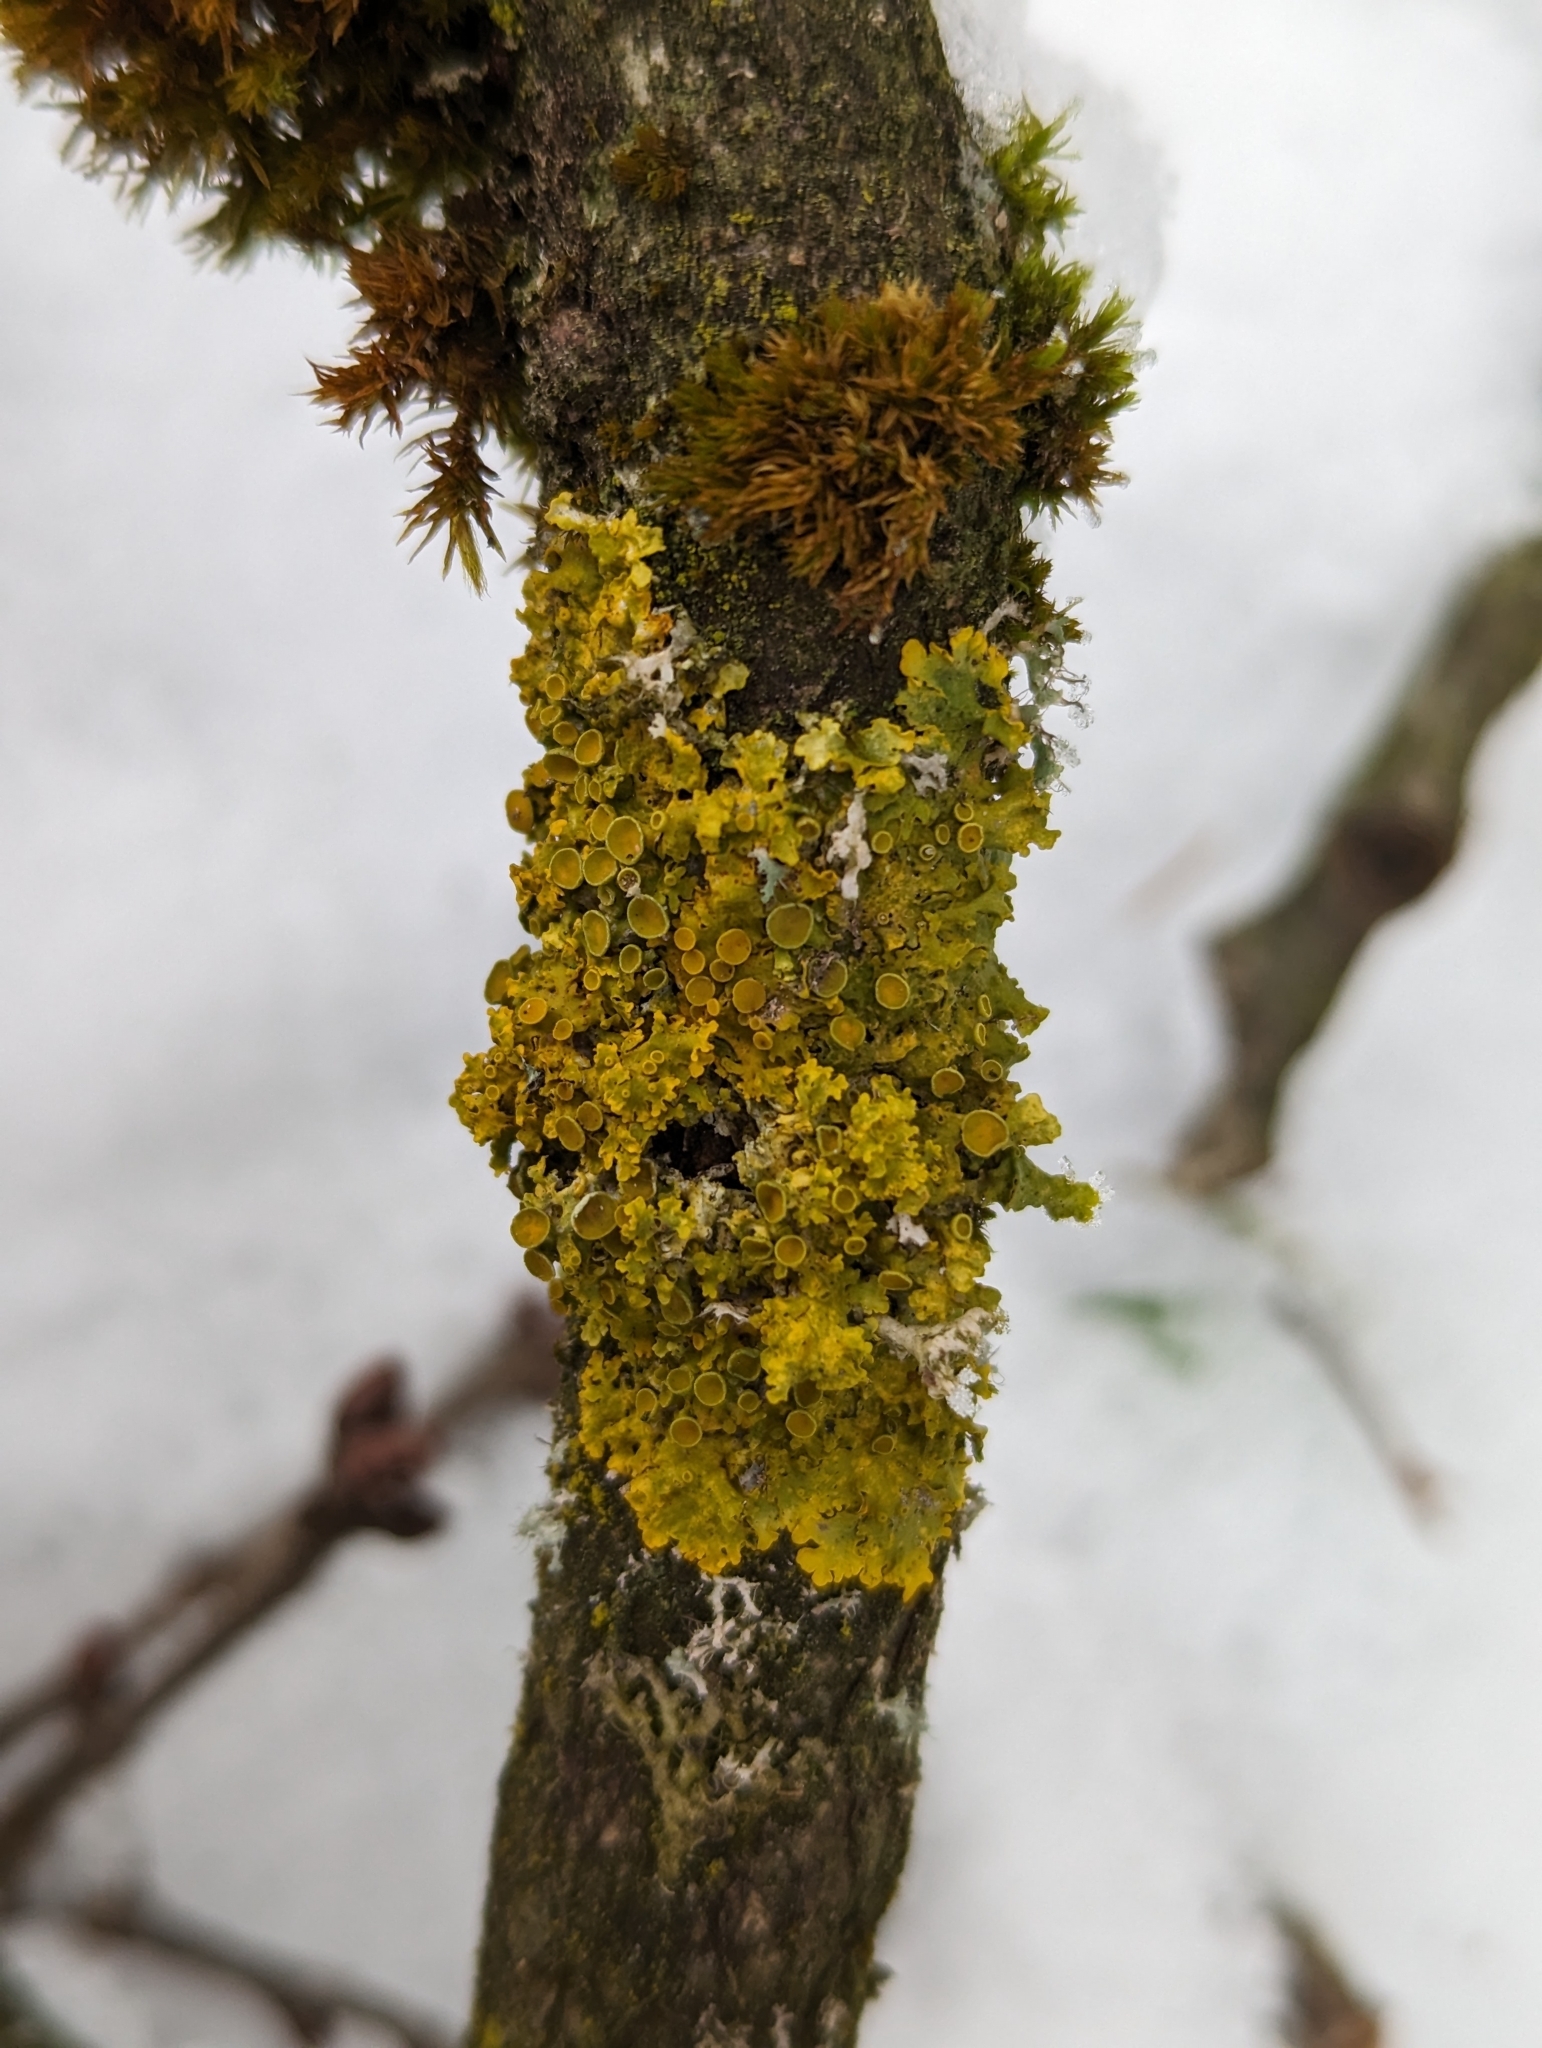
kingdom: Fungi
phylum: Ascomycota
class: Lecanoromycetes
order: Teloschistales
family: Teloschistaceae
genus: Xanthoria
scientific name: Xanthoria parietina
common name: Common orange lichen
